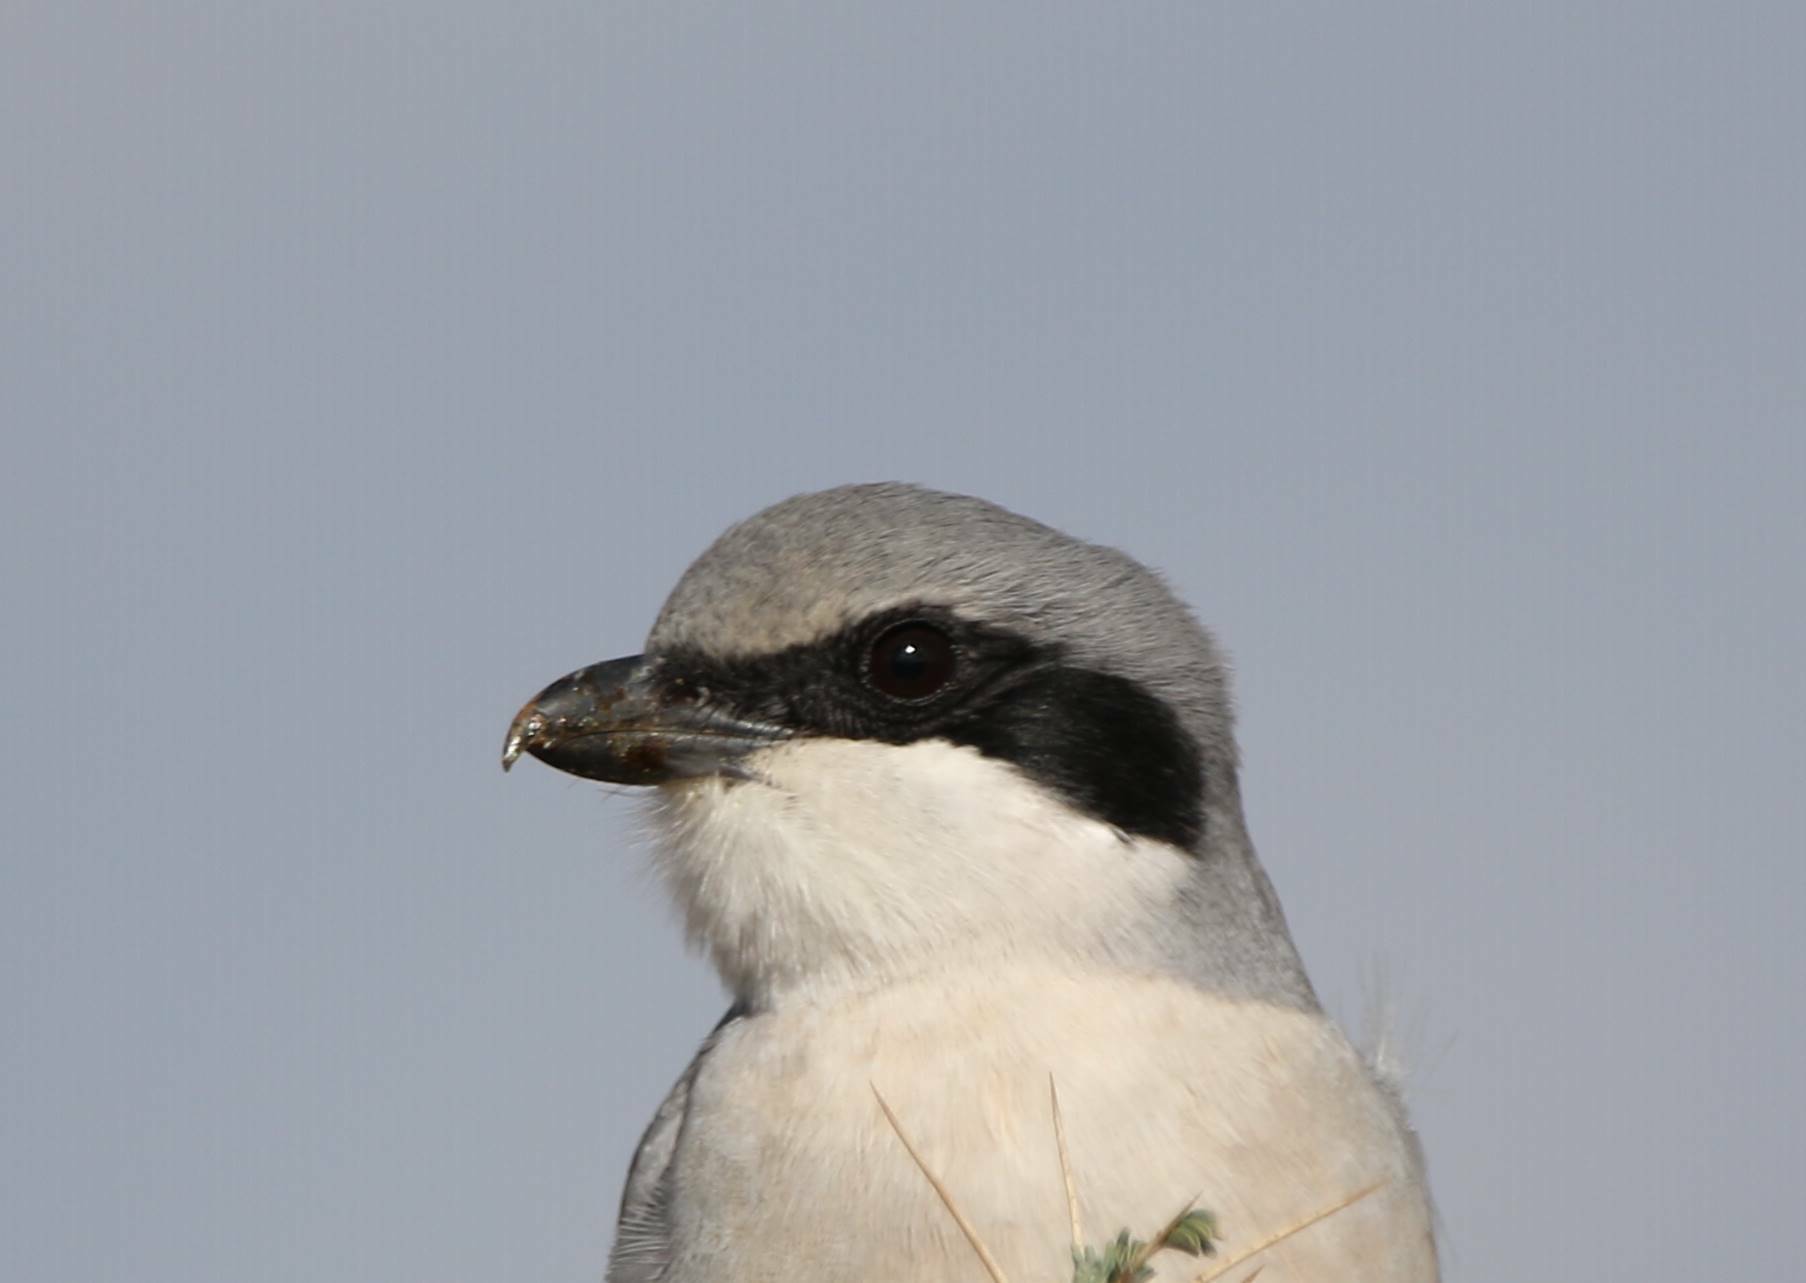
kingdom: Animalia
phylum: Chordata
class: Aves
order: Passeriformes
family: Laniidae
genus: Lanius
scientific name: Lanius excubitor
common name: Great grey shrike
